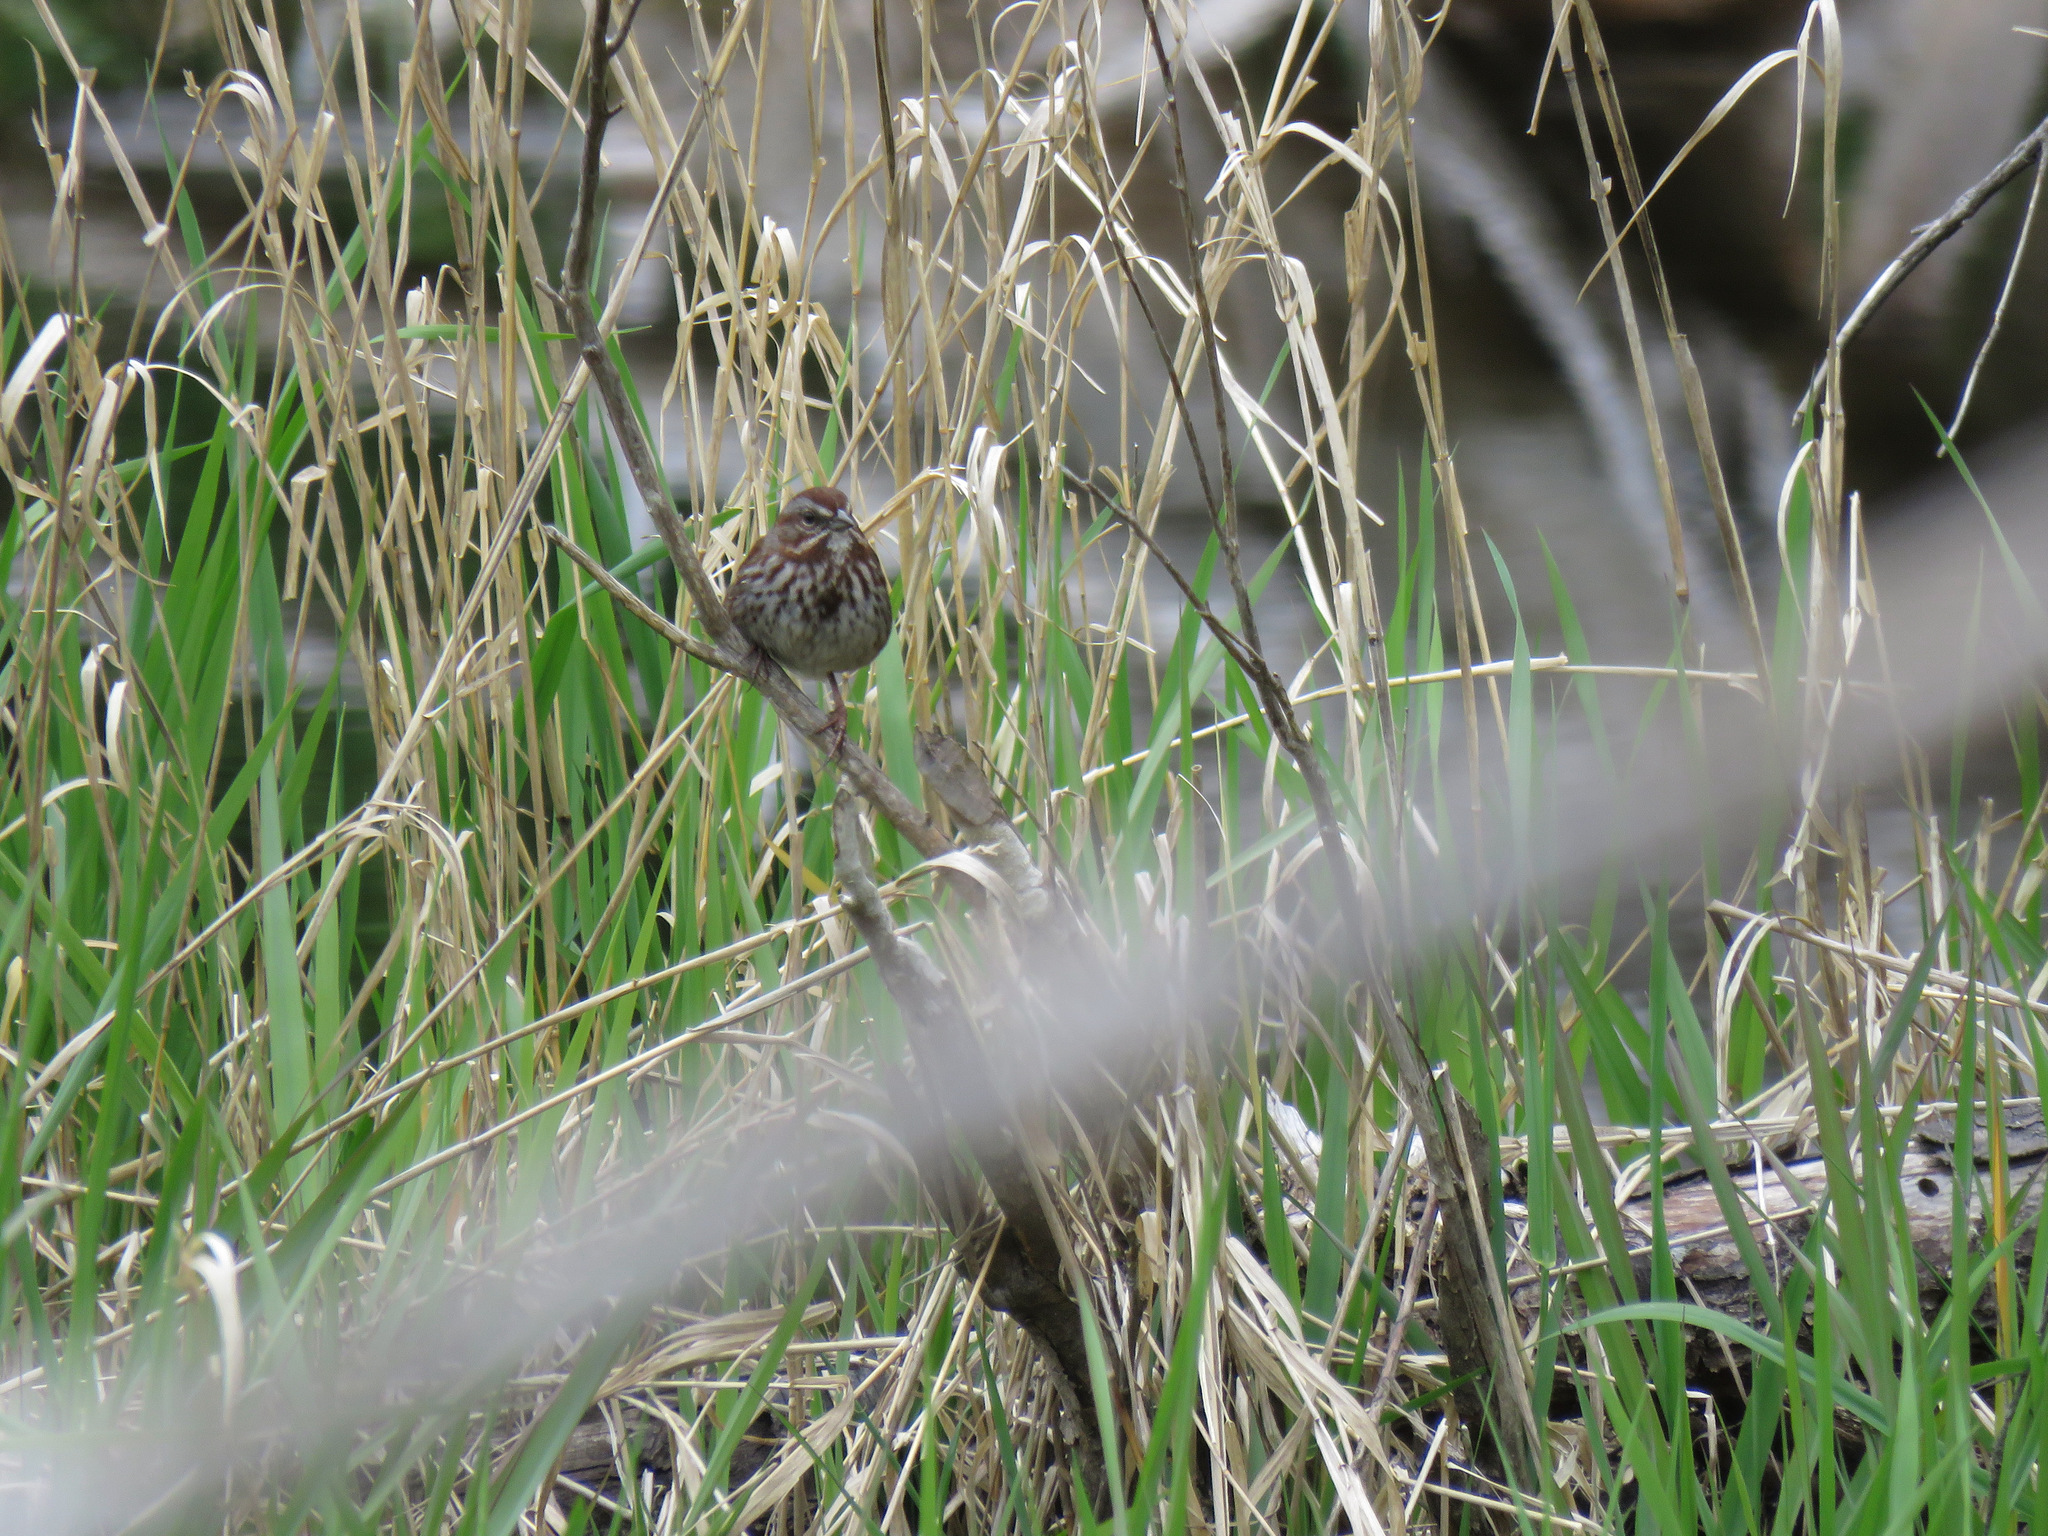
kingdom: Animalia
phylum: Chordata
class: Aves
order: Passeriformes
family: Passerellidae
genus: Melospiza
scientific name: Melospiza melodia
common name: Song sparrow
